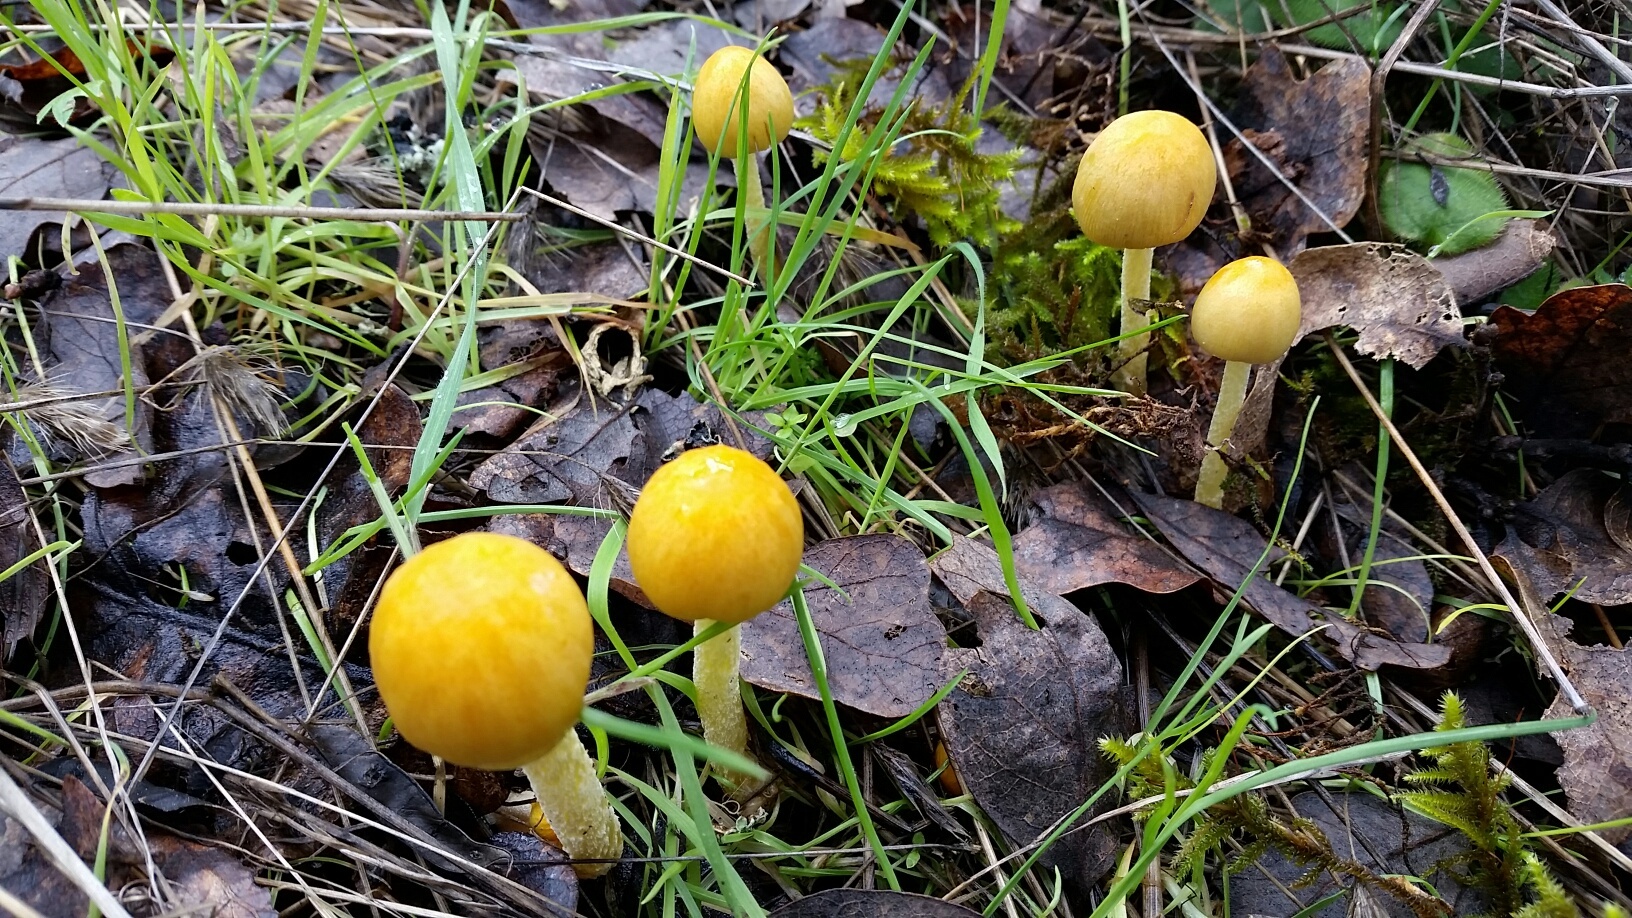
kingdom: Fungi
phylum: Basidiomycota
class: Agaricomycetes
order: Agaricales
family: Bolbitiaceae
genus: Bolbitius
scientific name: Bolbitius titubans
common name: Yellow fieldcap
